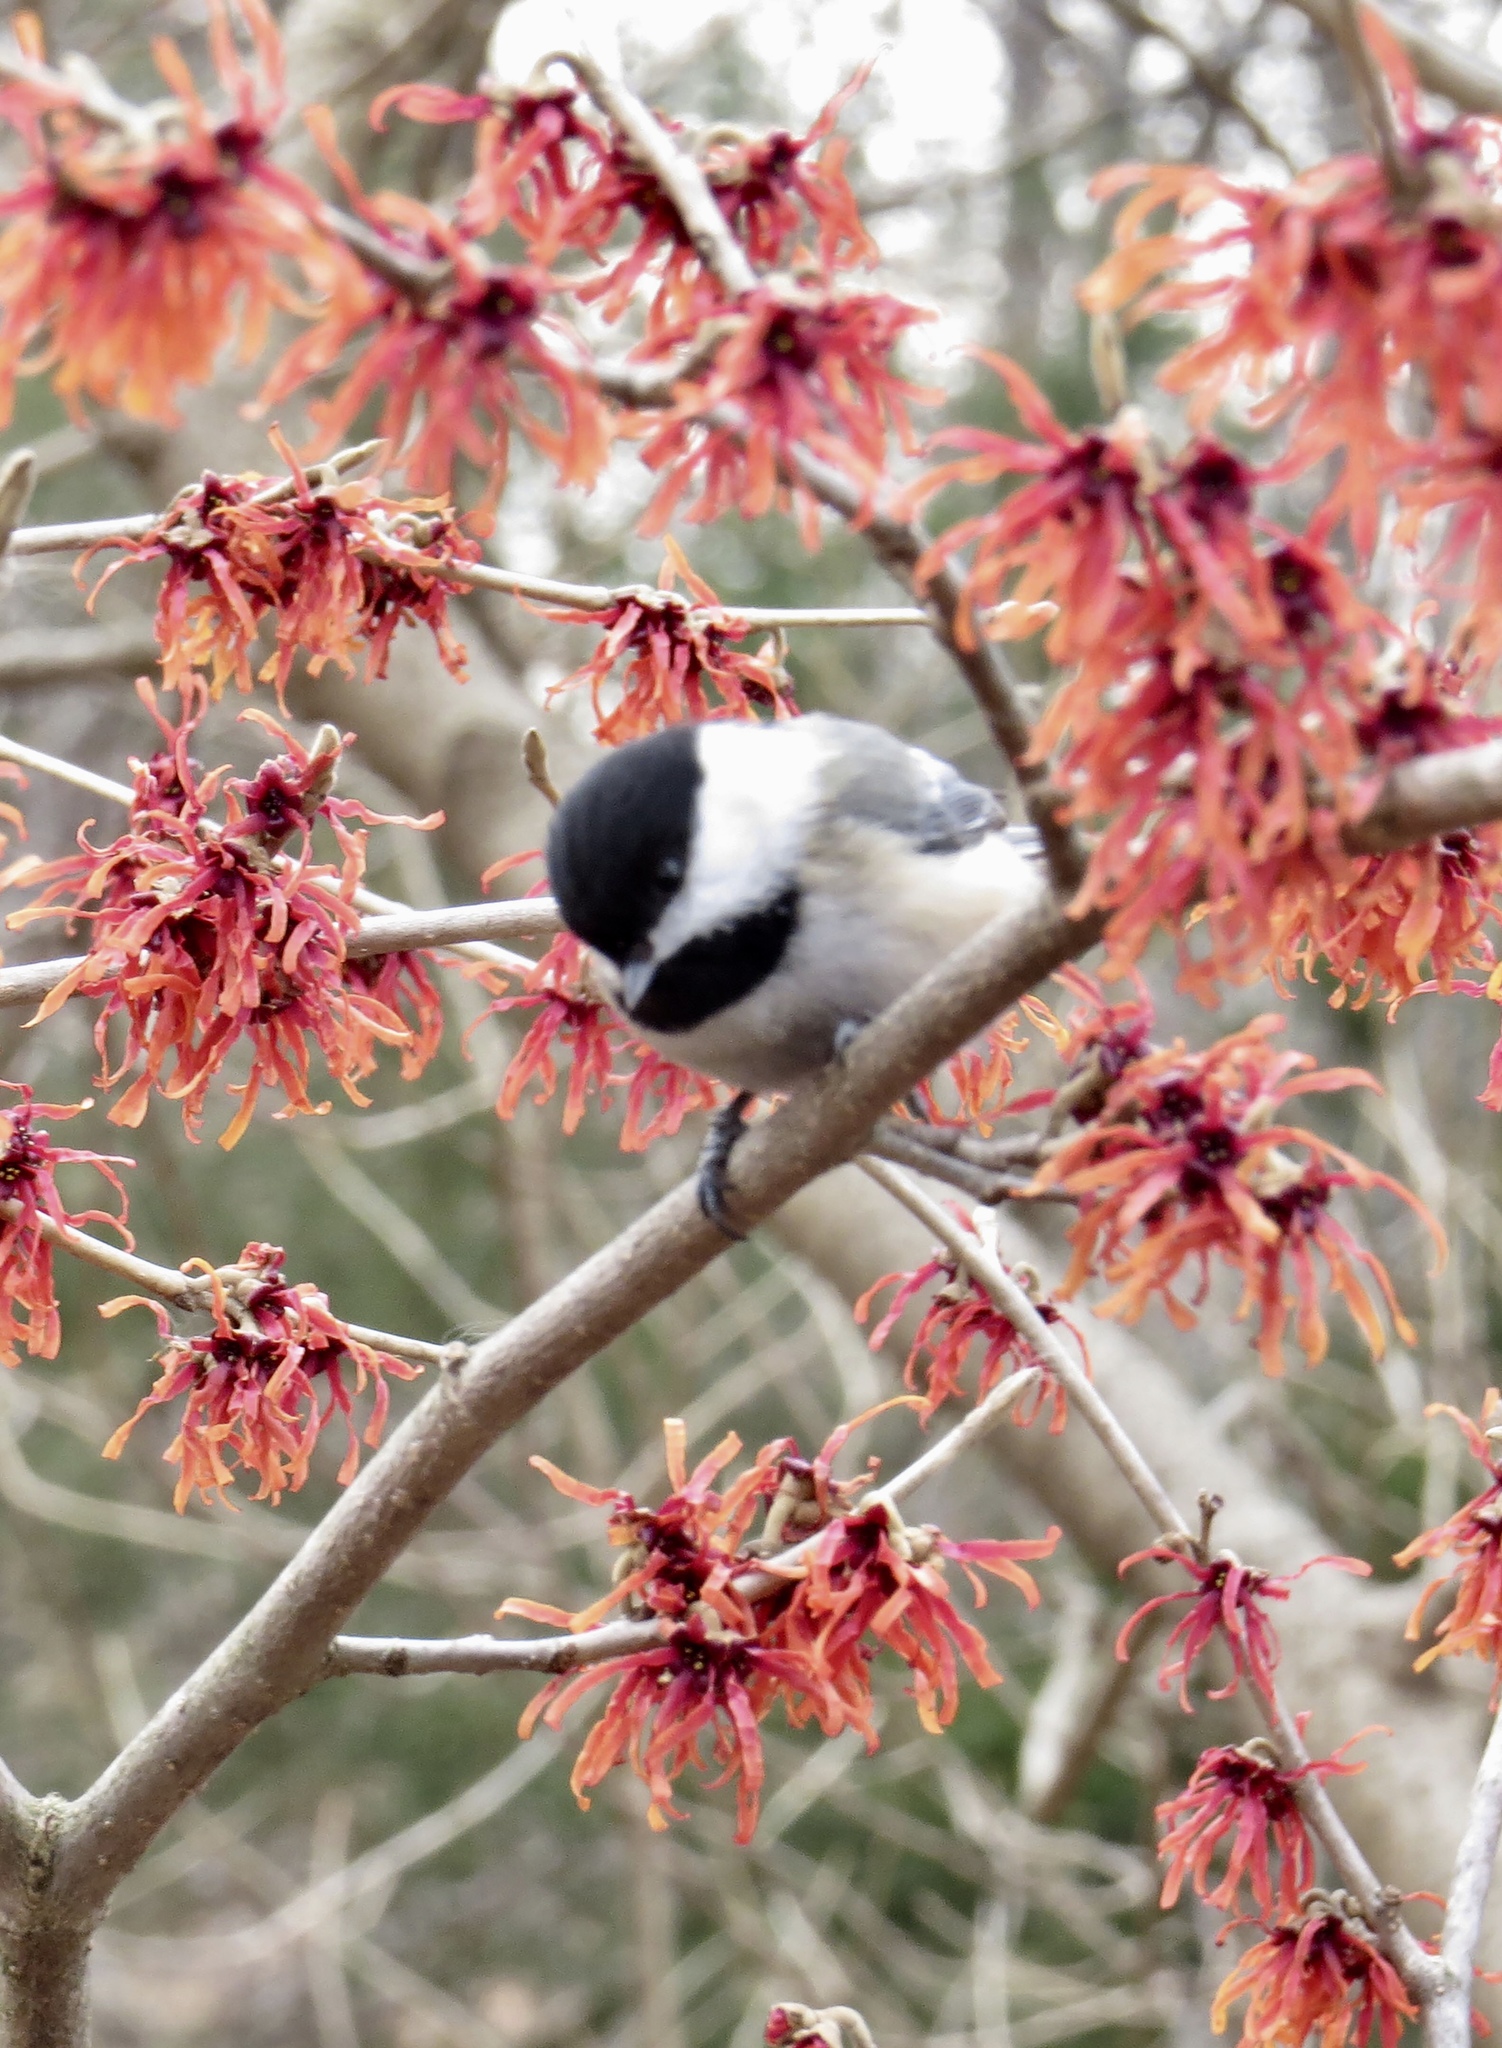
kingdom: Animalia
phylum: Chordata
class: Aves
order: Passeriformes
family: Paridae
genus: Poecile
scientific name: Poecile atricapillus
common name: Black-capped chickadee
